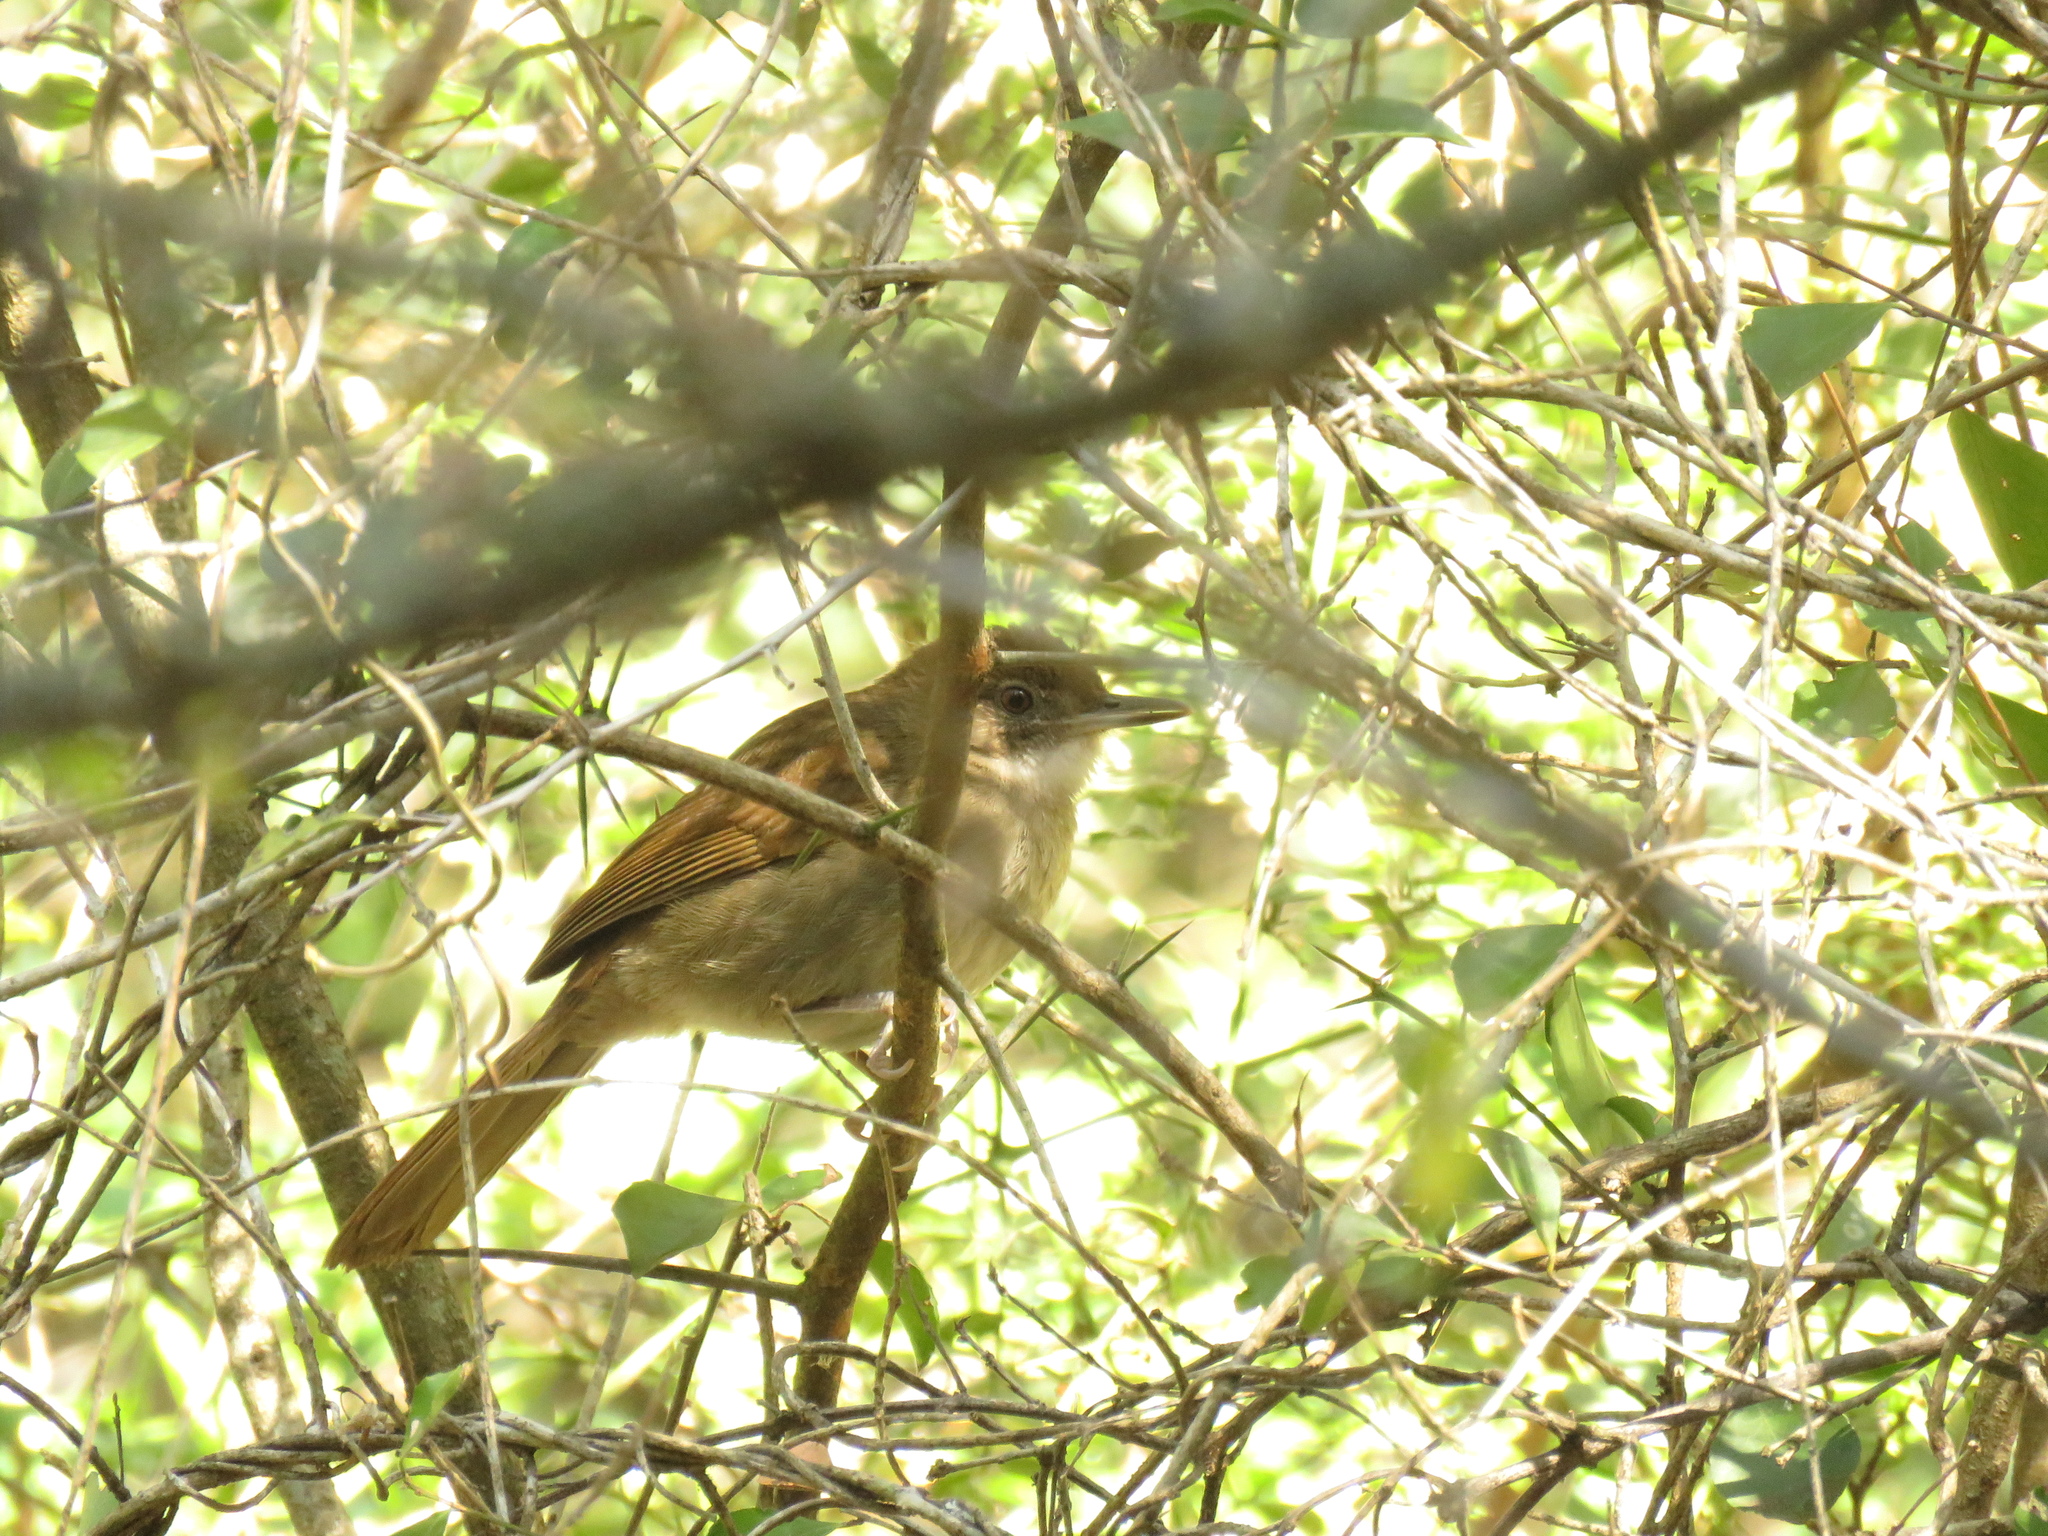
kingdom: Animalia
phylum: Chordata
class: Aves
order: Passeriformes
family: Pycnonotidae
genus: Phyllastrephus
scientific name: Phyllastrephus terrestris
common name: Terrestrial brownbul
